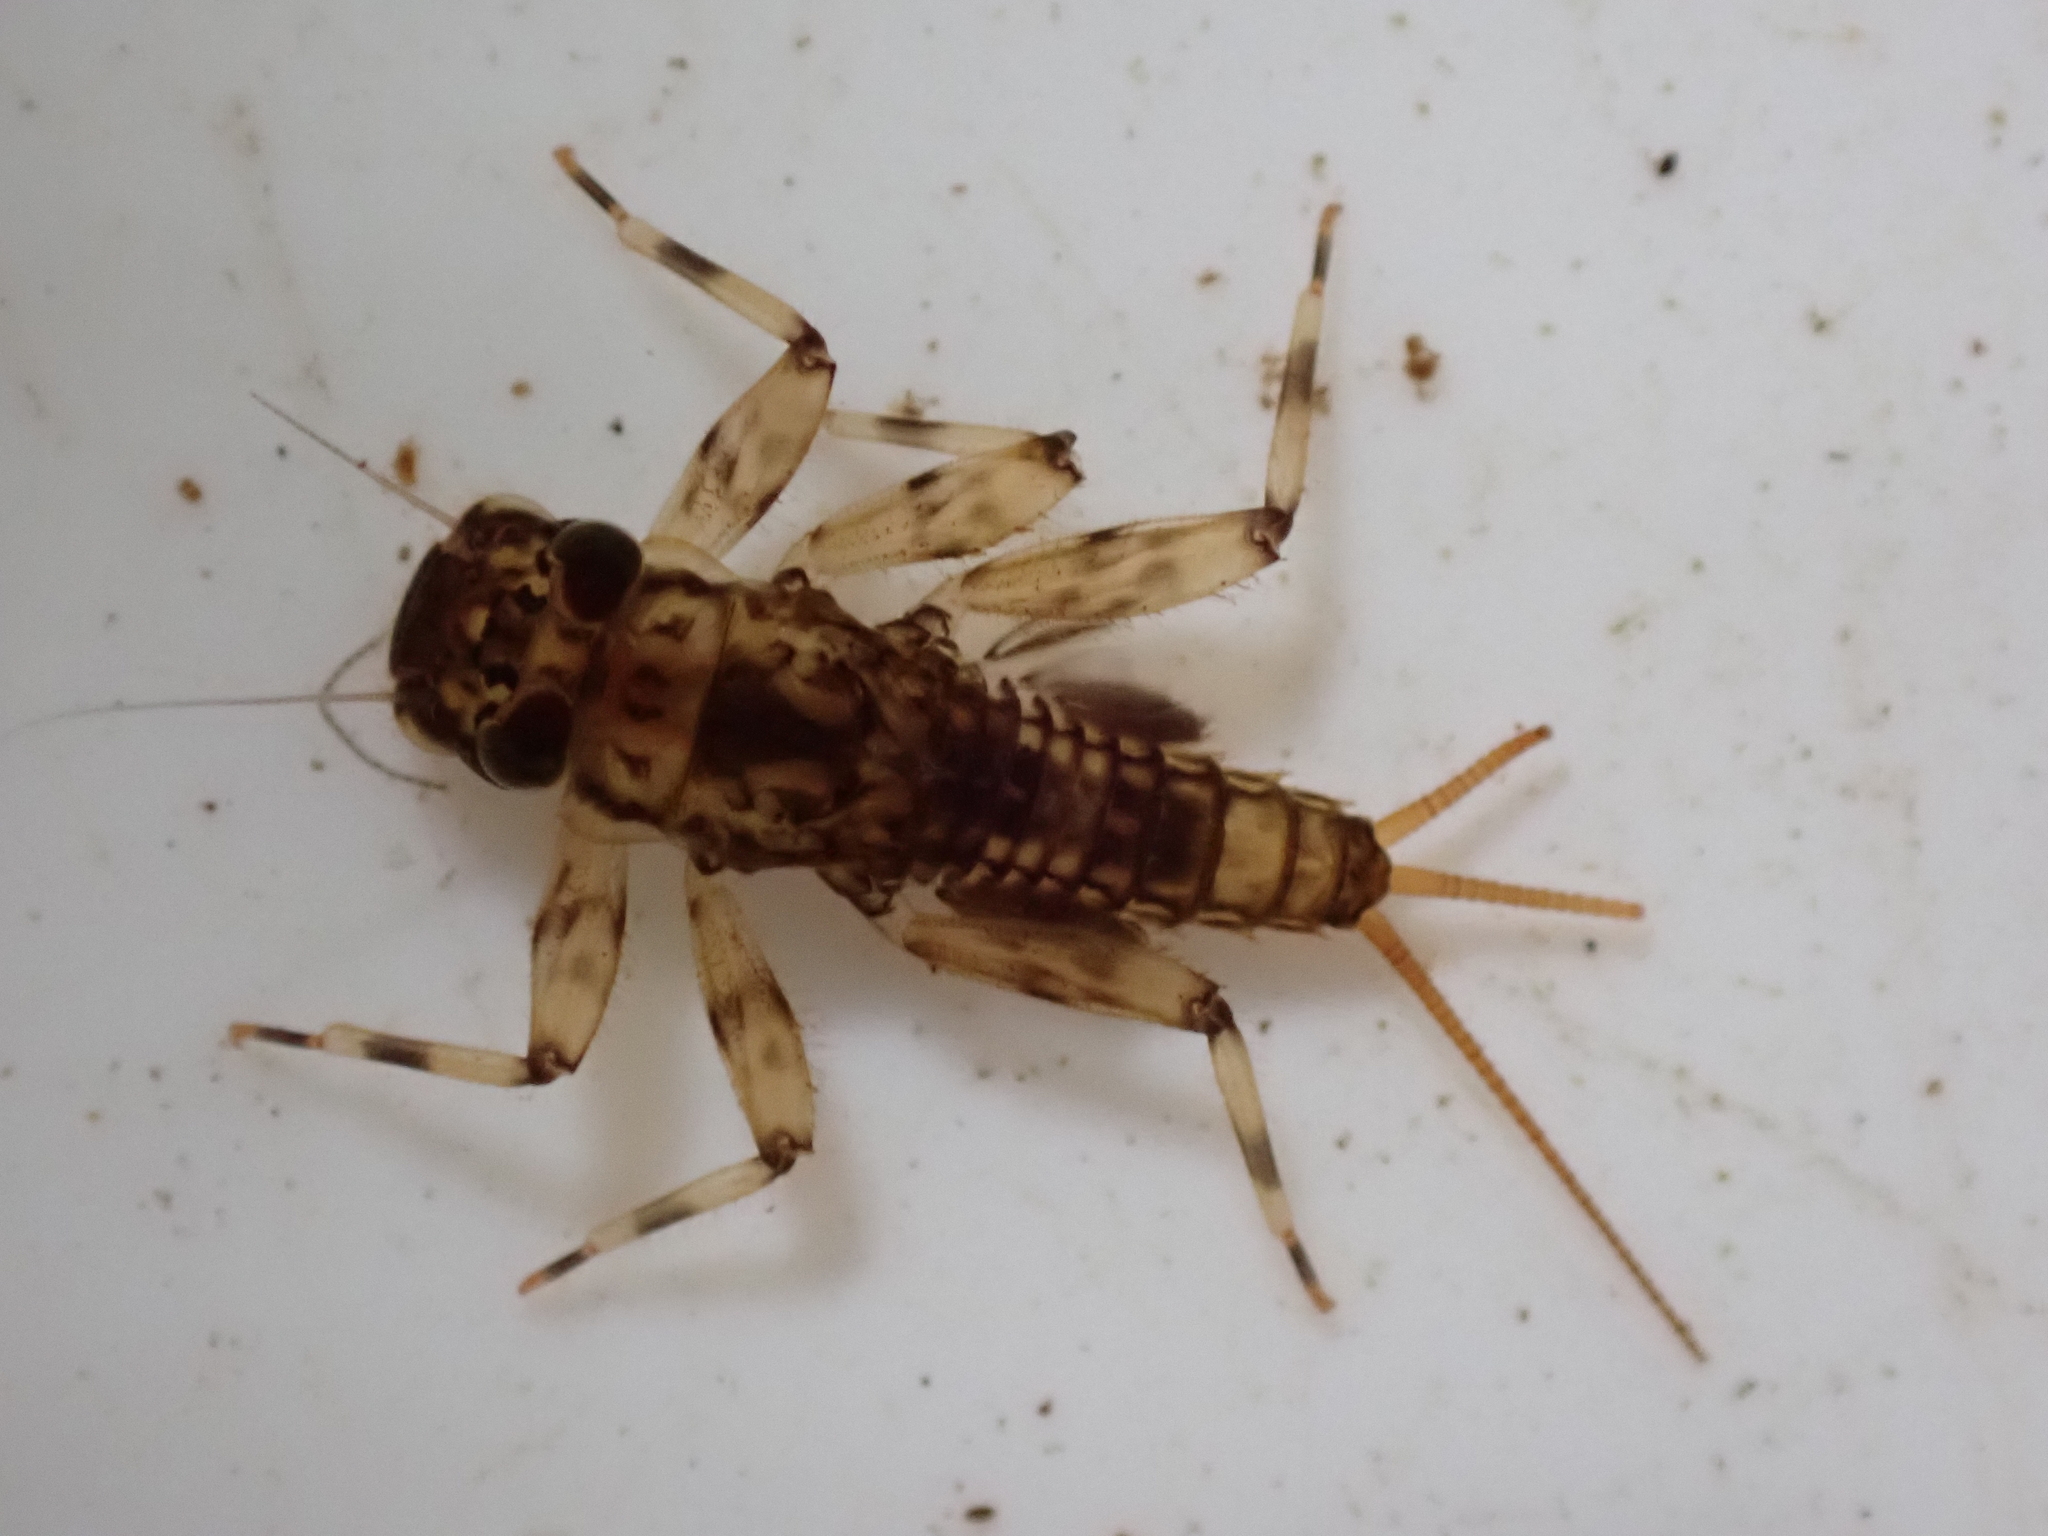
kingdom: Animalia
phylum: Arthropoda
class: Insecta
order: Ephemeroptera
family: Leptophlebiidae
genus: Zephlebia
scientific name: Zephlebia spectabilis
